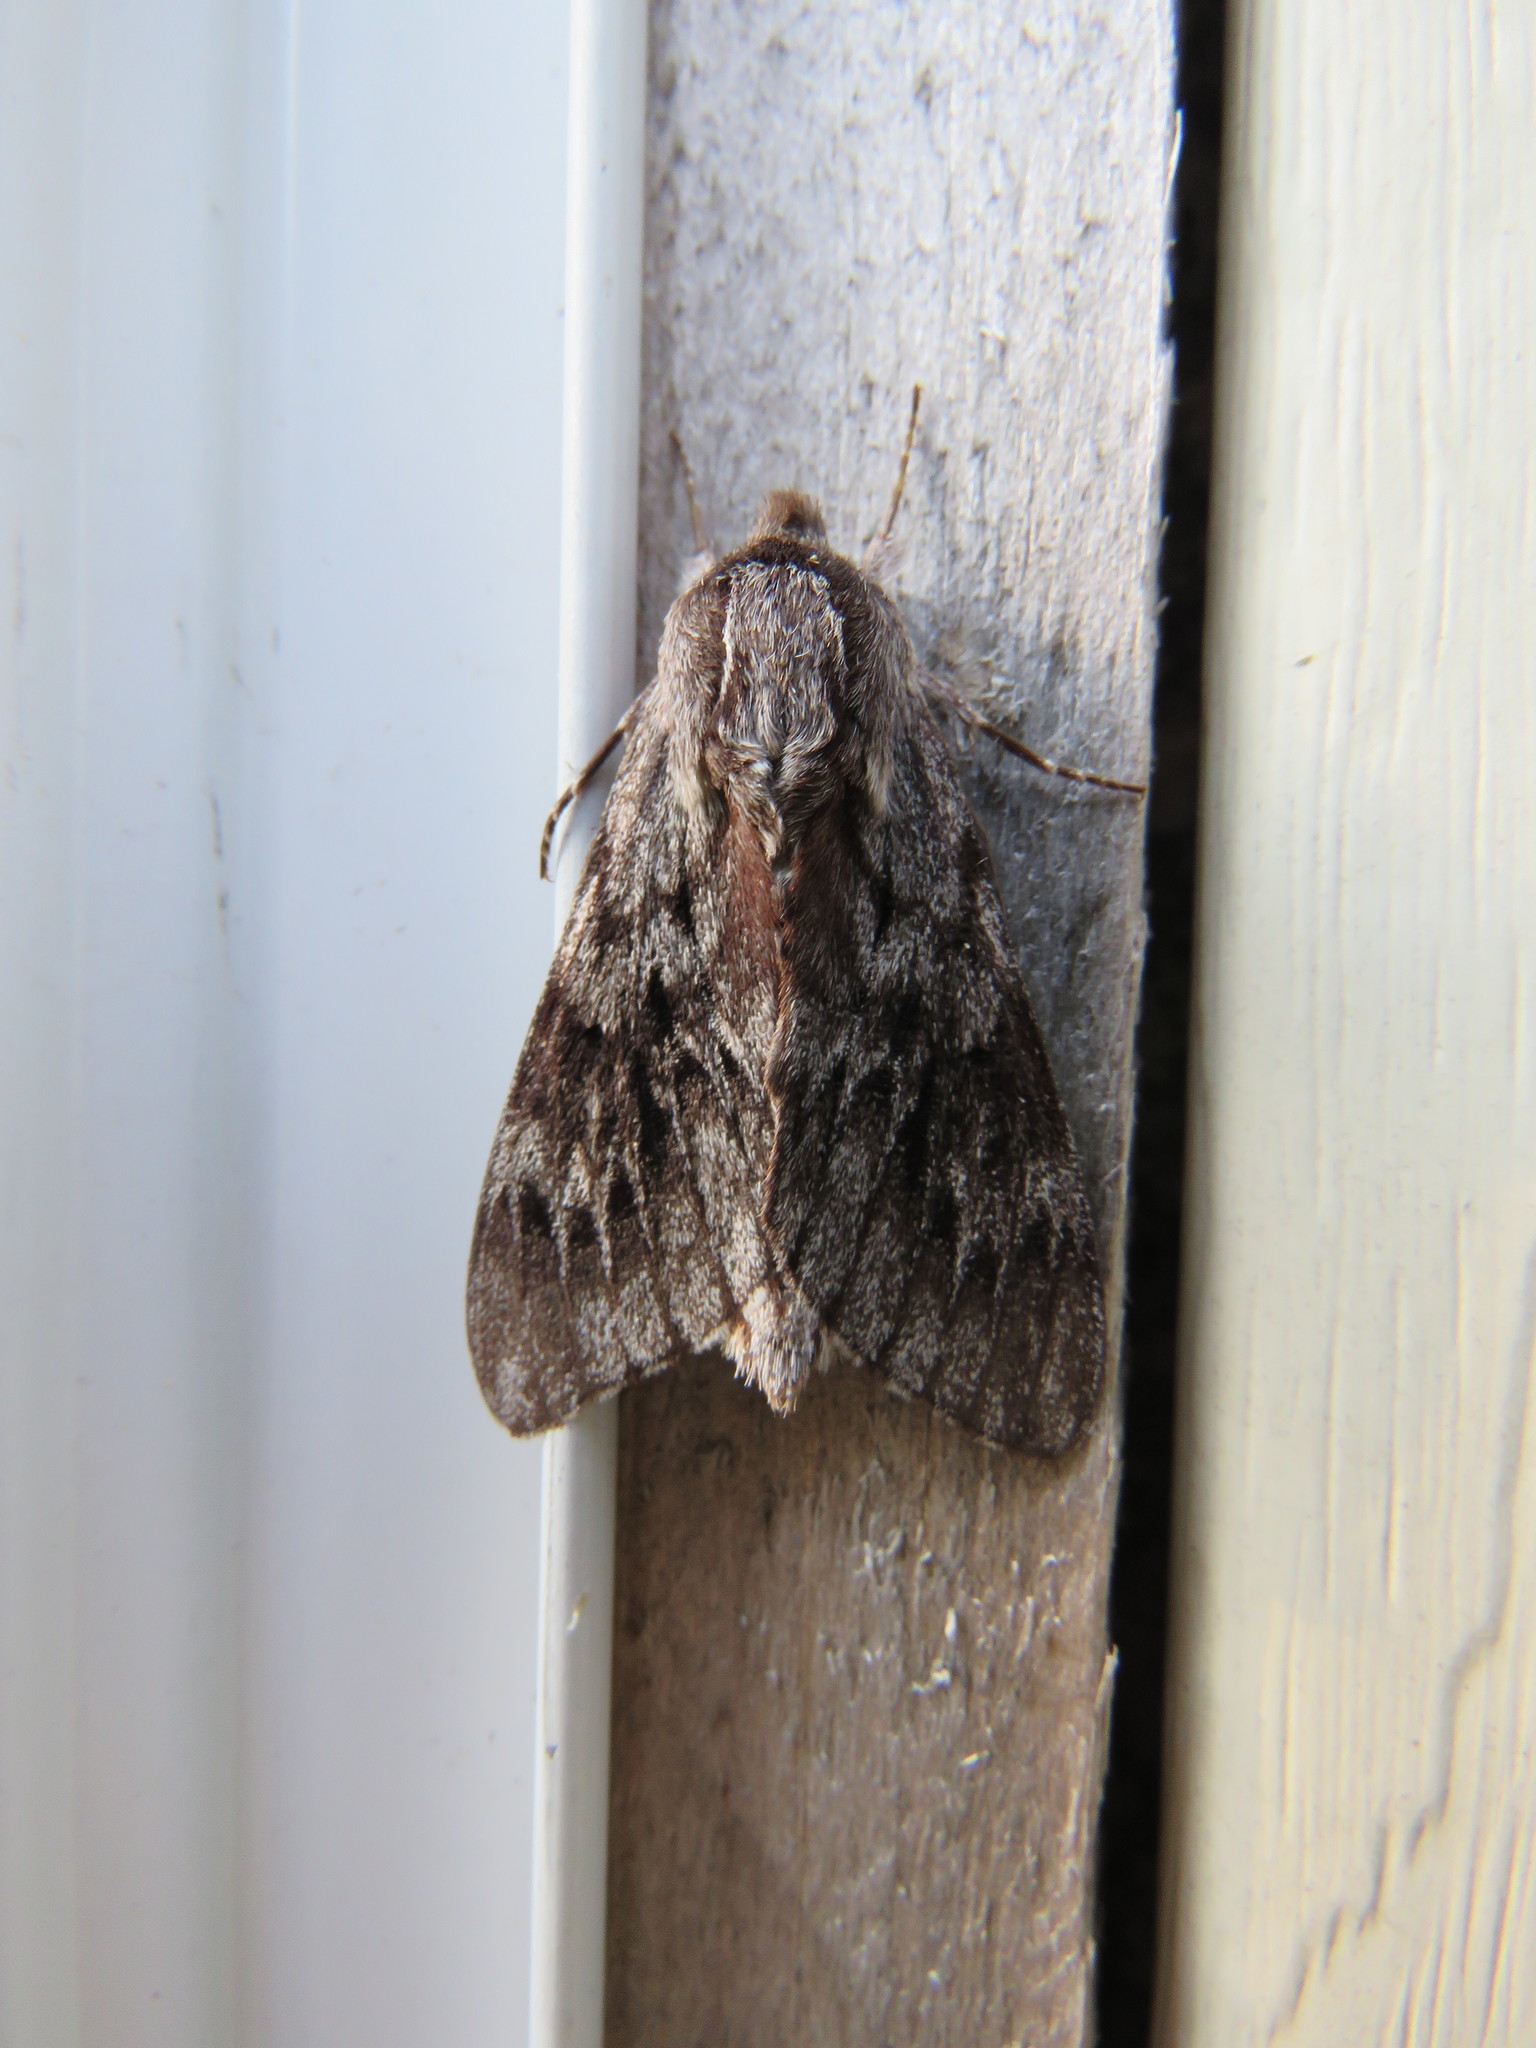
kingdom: Animalia
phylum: Arthropoda
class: Insecta
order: Lepidoptera
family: Sphingidae
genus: Lapara
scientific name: Lapara bombycoides
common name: Northern pine sphinx
